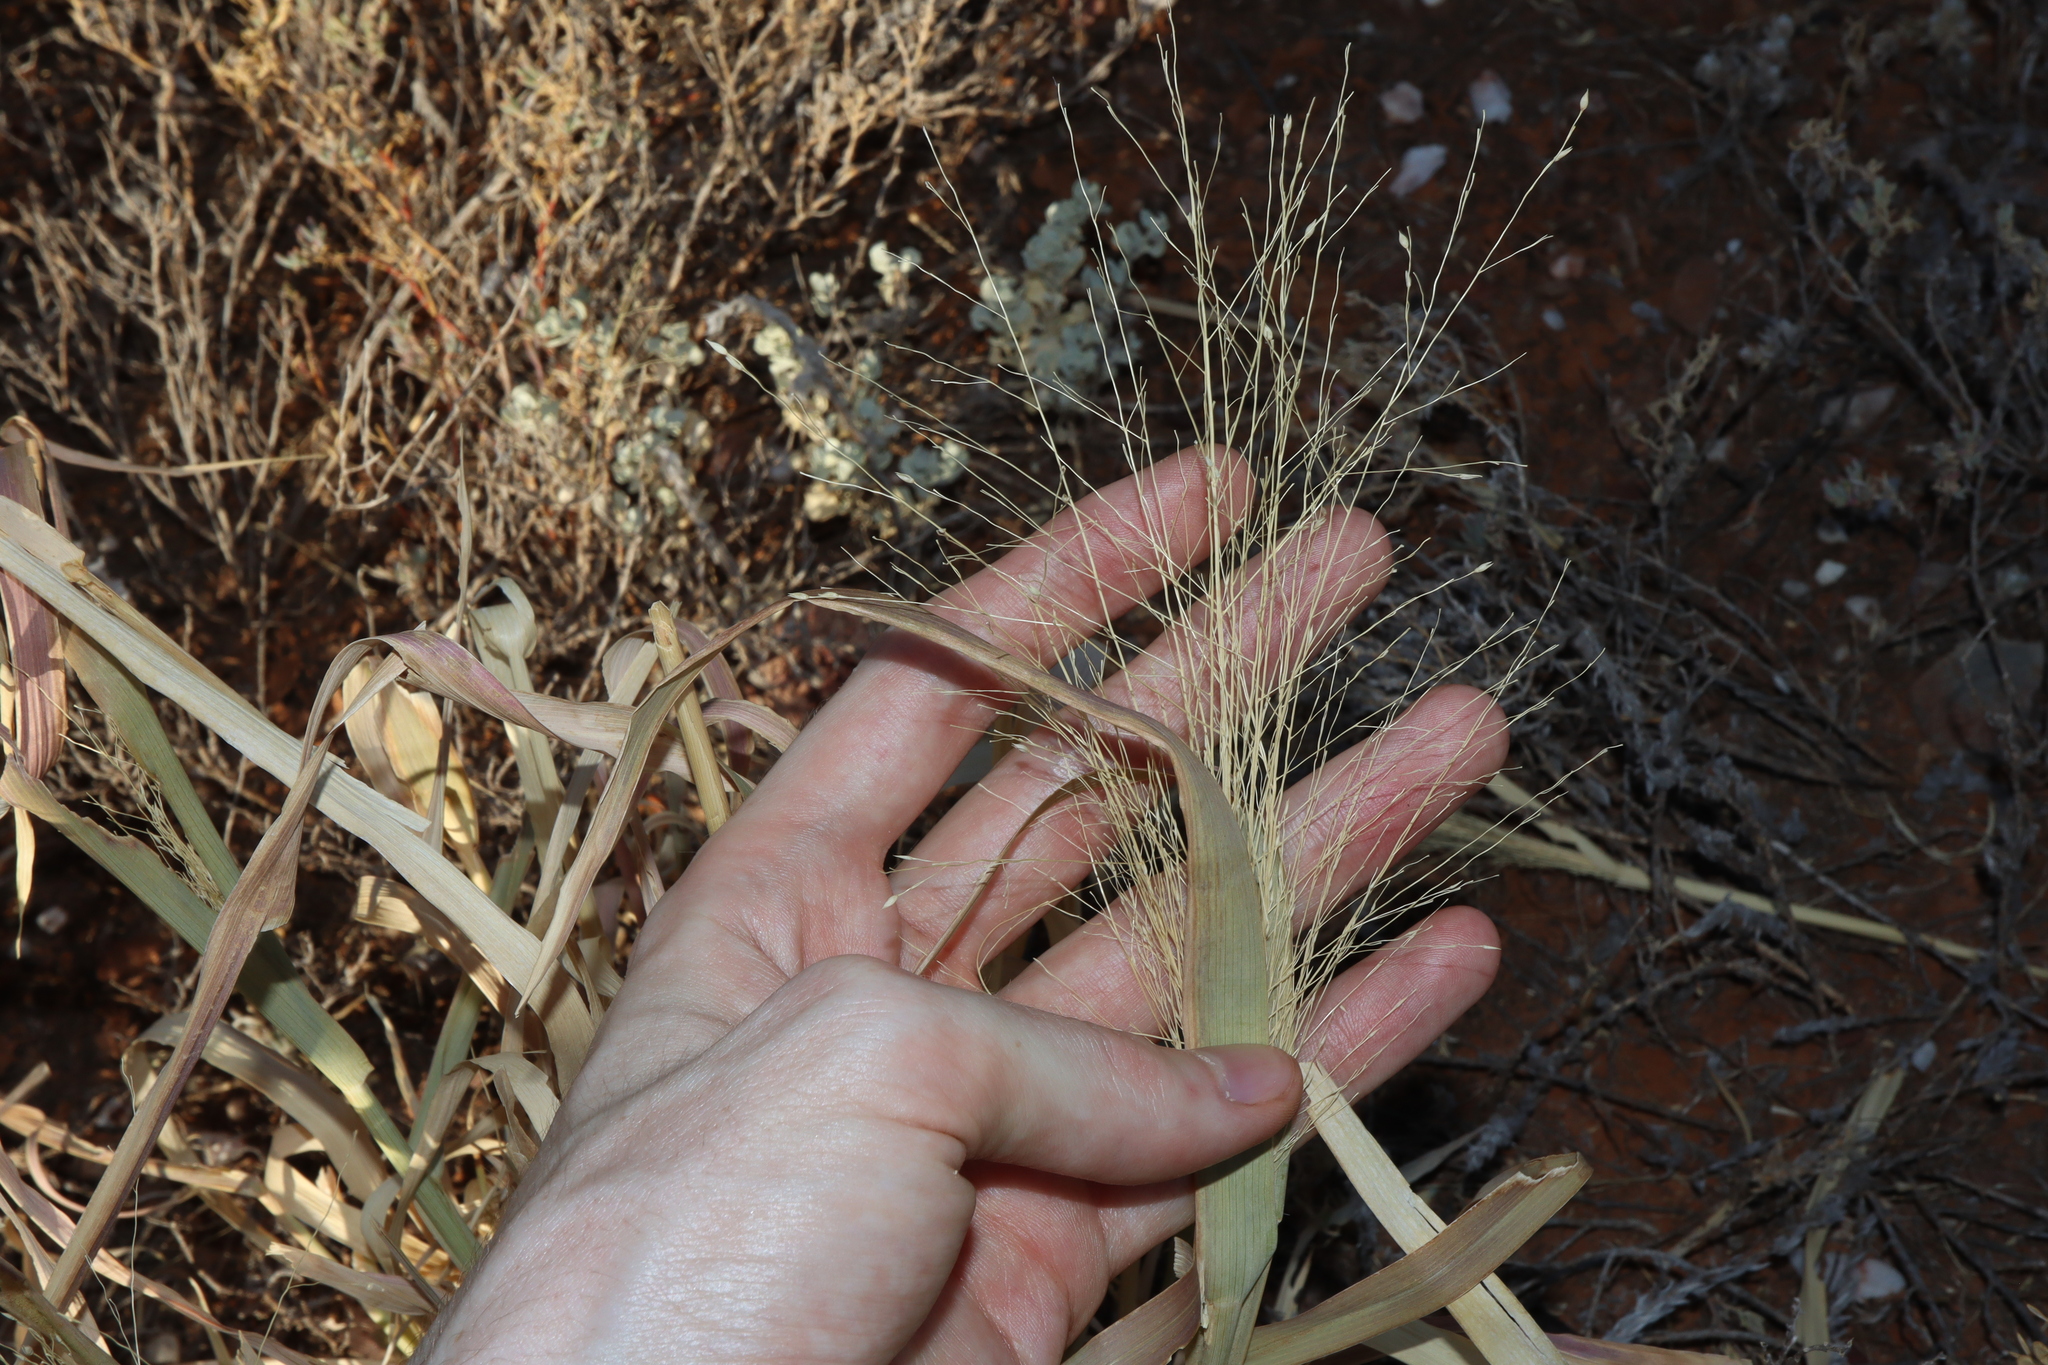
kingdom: Plantae
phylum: Tracheophyta
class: Liliopsida
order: Poales
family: Poaceae
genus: Panicum
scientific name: Panicum decompositum
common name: Australian millet
